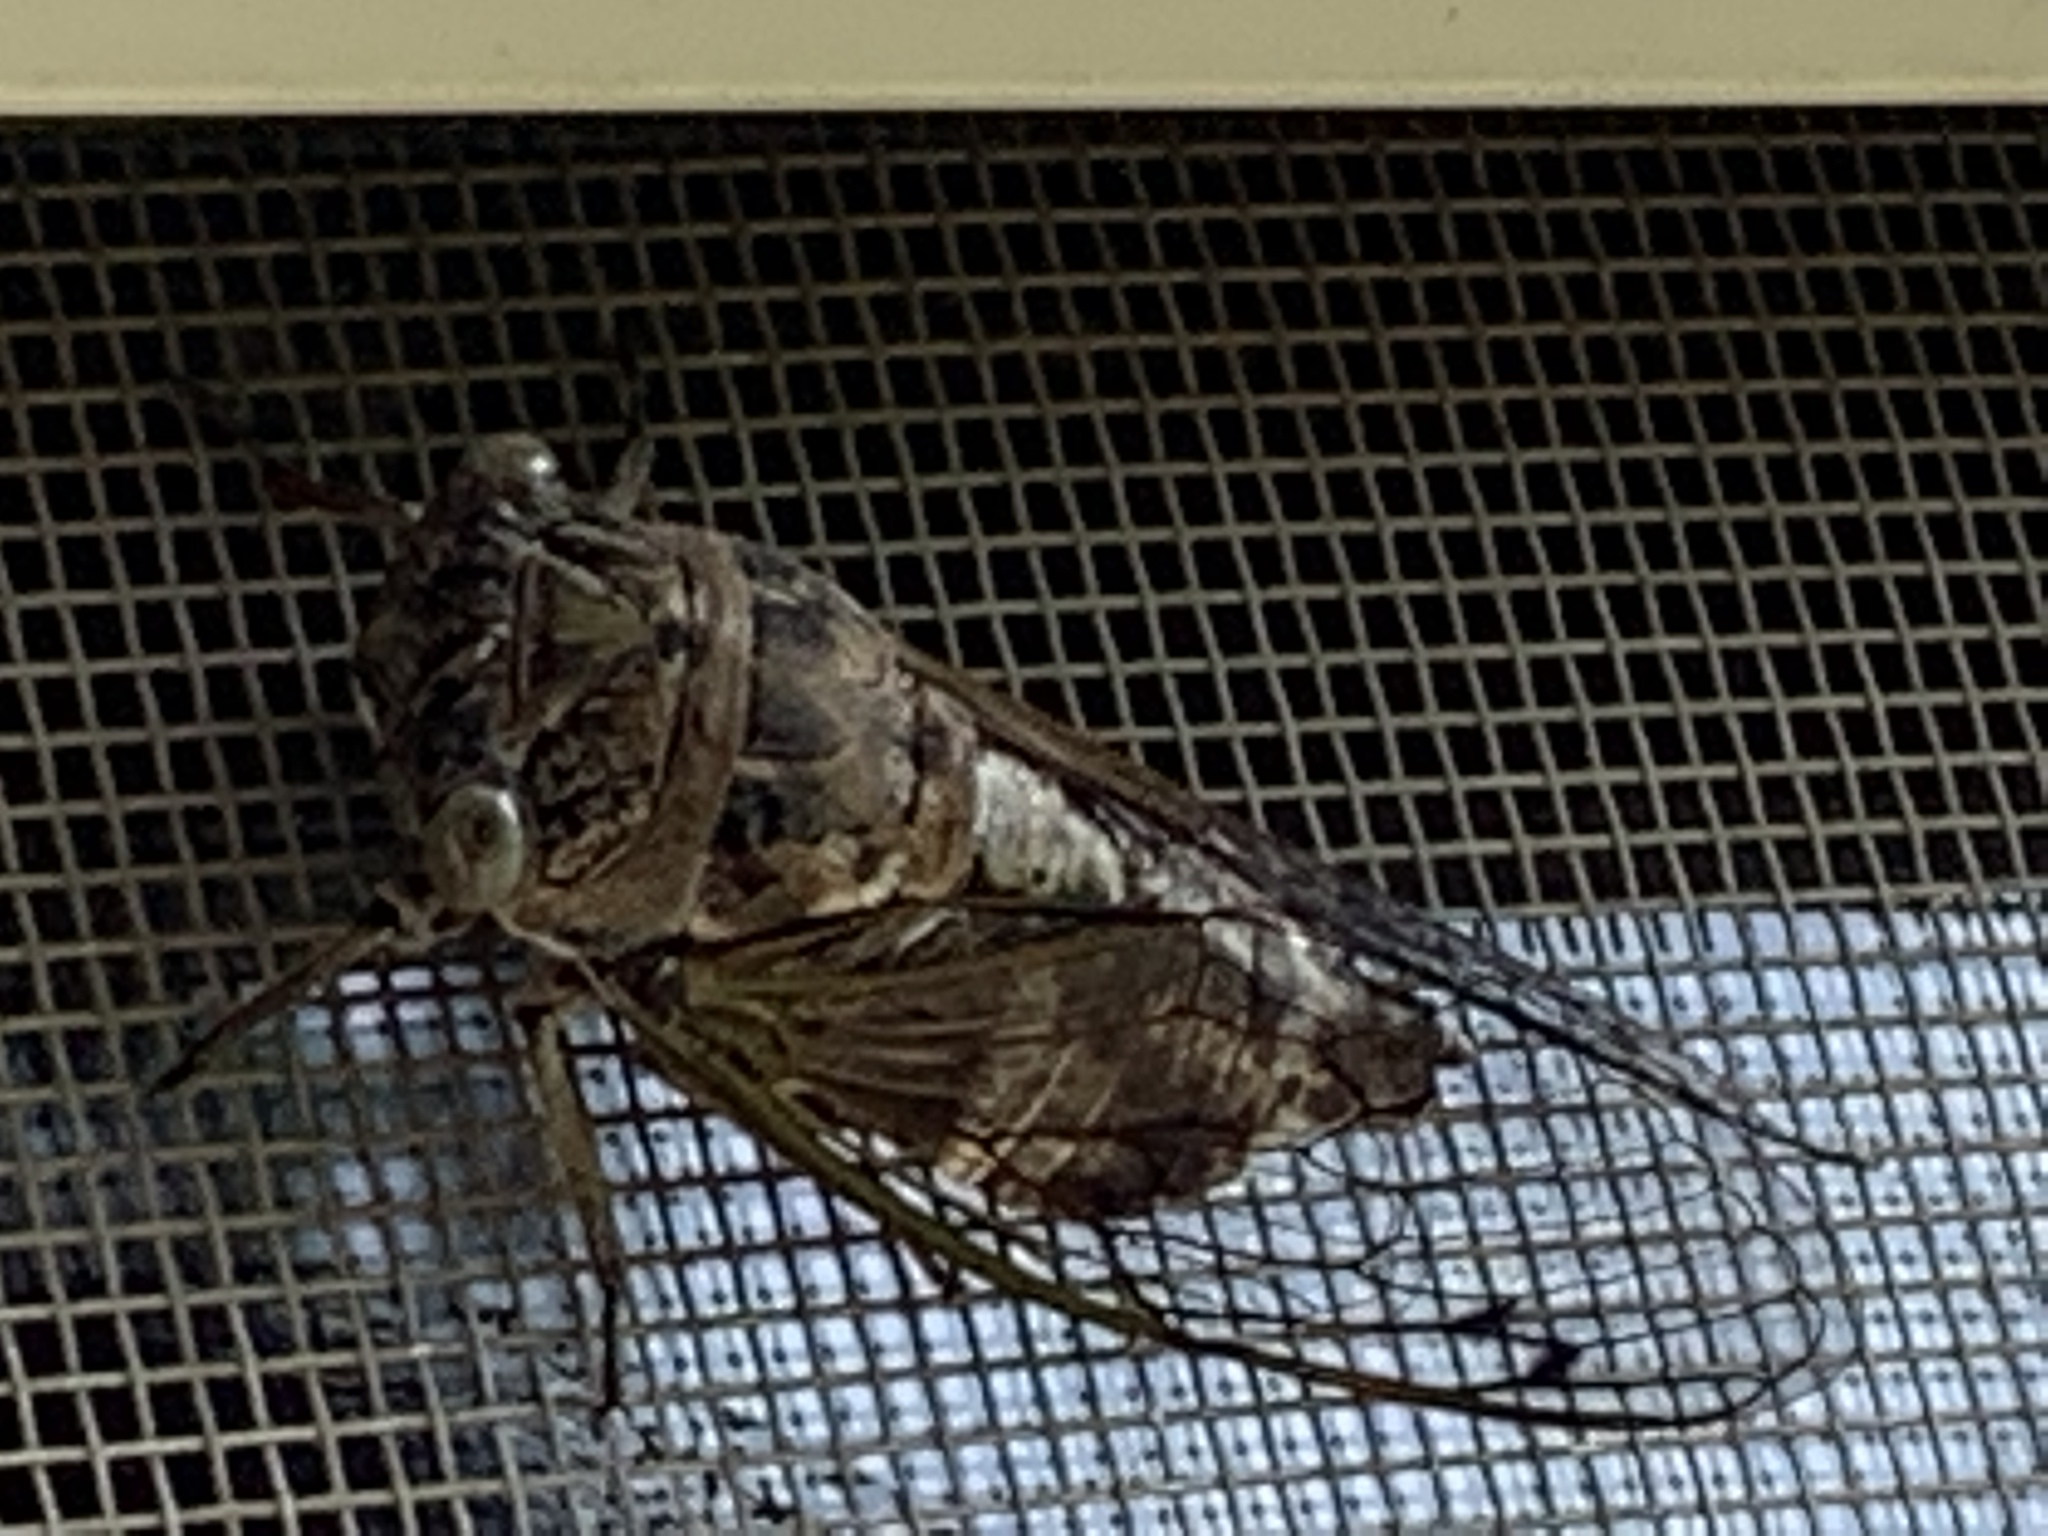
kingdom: Animalia
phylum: Arthropoda
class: Insecta
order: Hemiptera
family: Cicadidae
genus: Neotibicen
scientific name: Neotibicen canicularis
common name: God-day cicada
